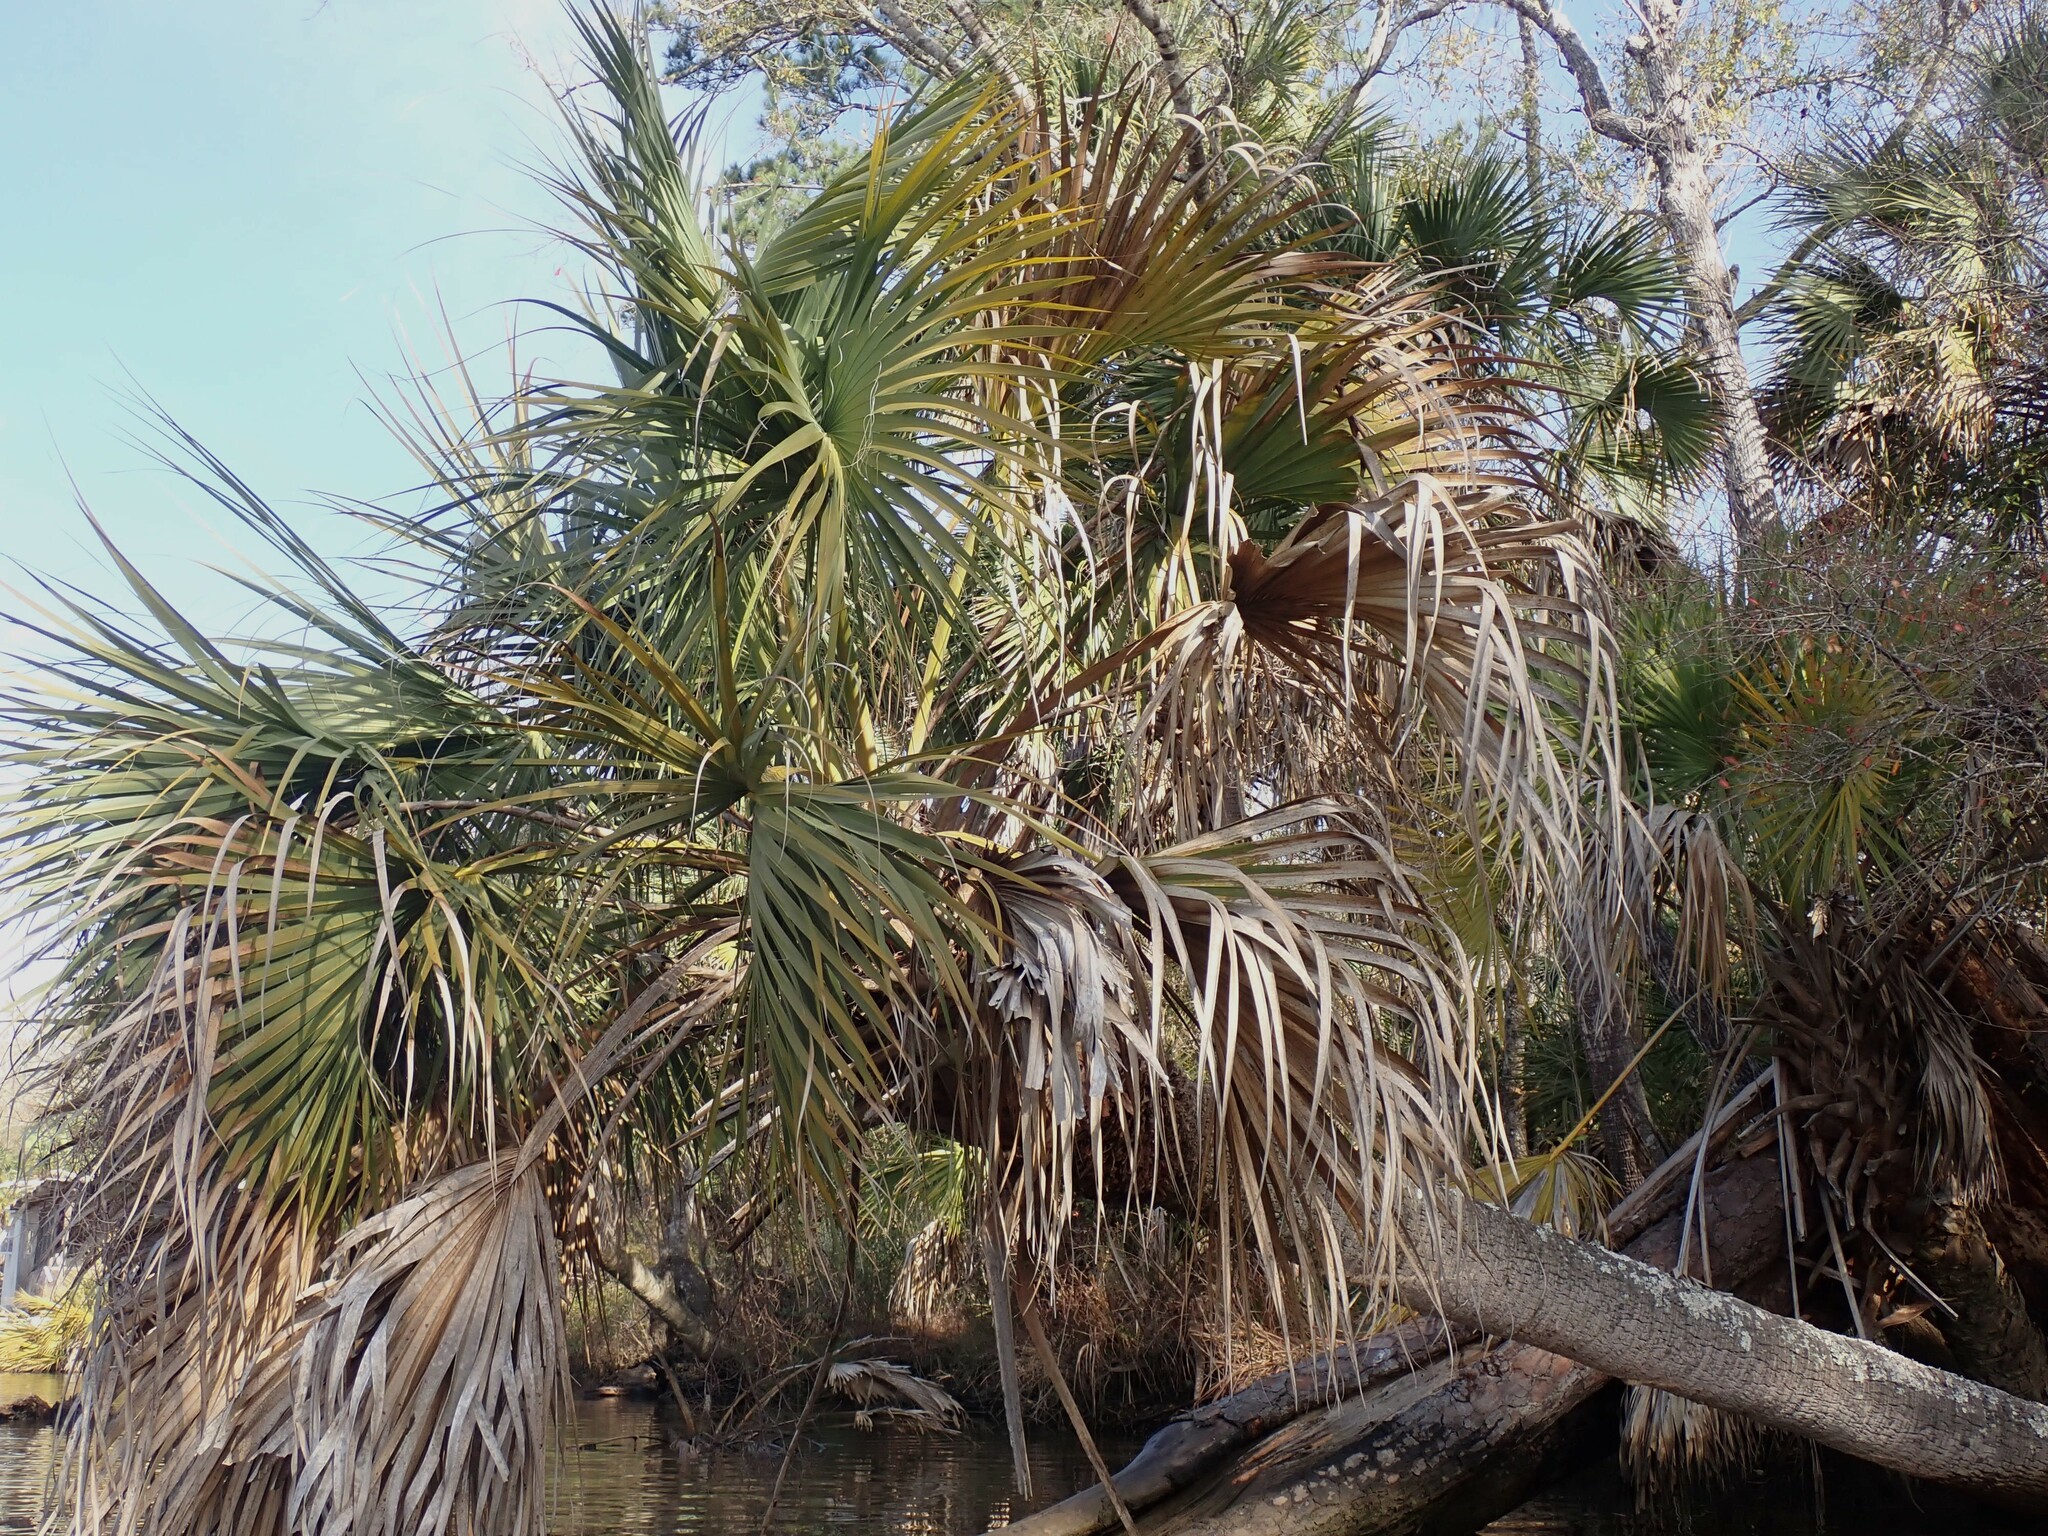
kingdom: Plantae
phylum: Tracheophyta
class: Liliopsida
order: Arecales
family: Arecaceae
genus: Sabal
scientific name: Sabal palmetto
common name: Blue palmetto
